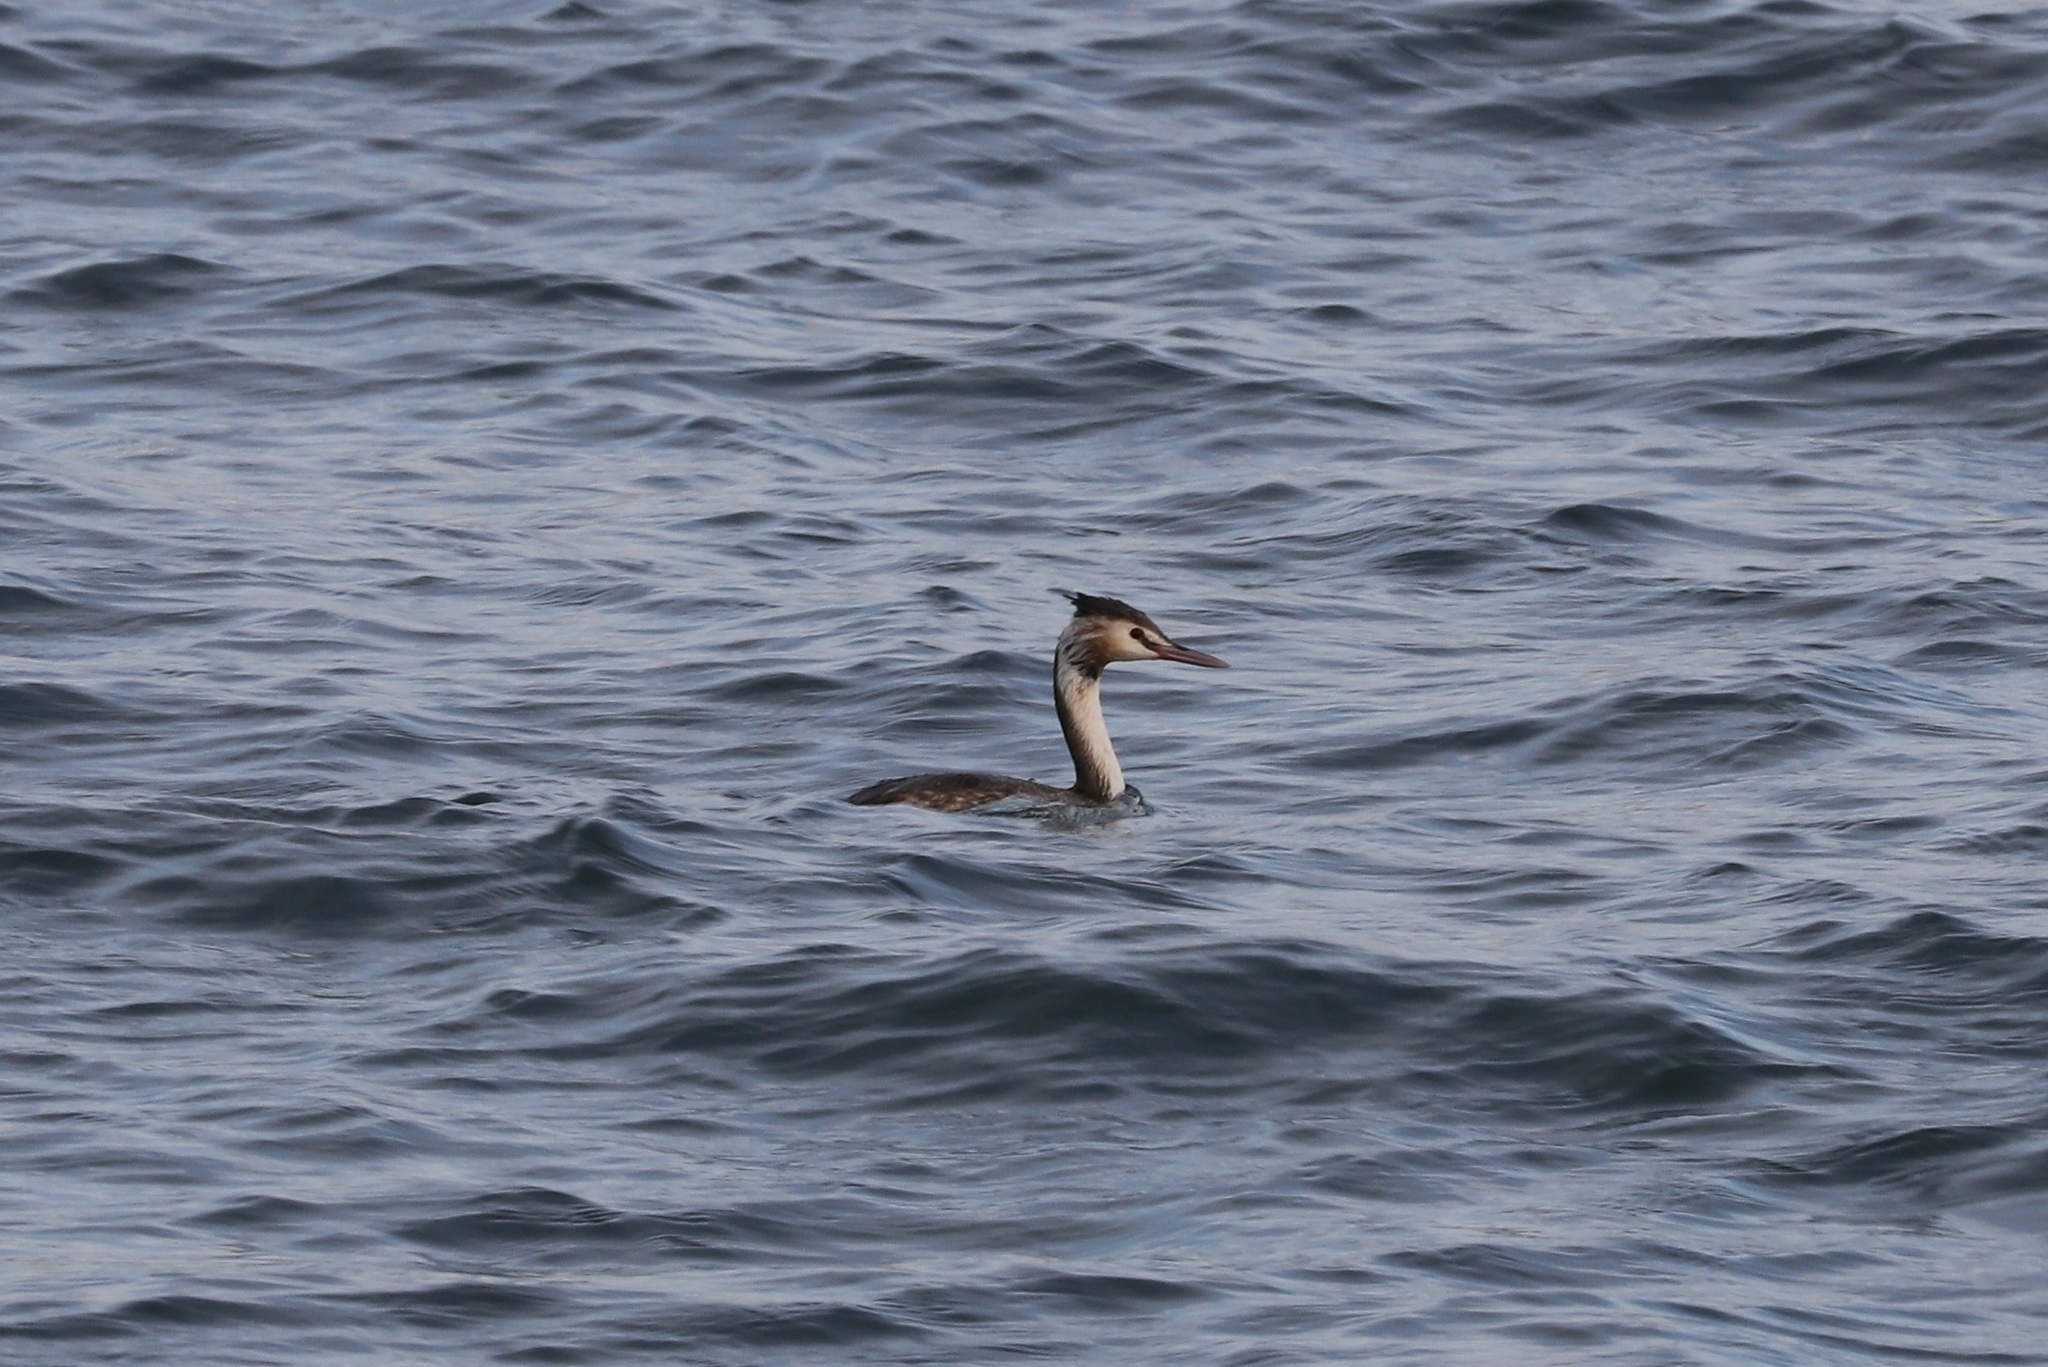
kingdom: Animalia
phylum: Chordata
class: Aves
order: Podicipediformes
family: Podicipedidae
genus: Podiceps
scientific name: Podiceps cristatus
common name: Great crested grebe
